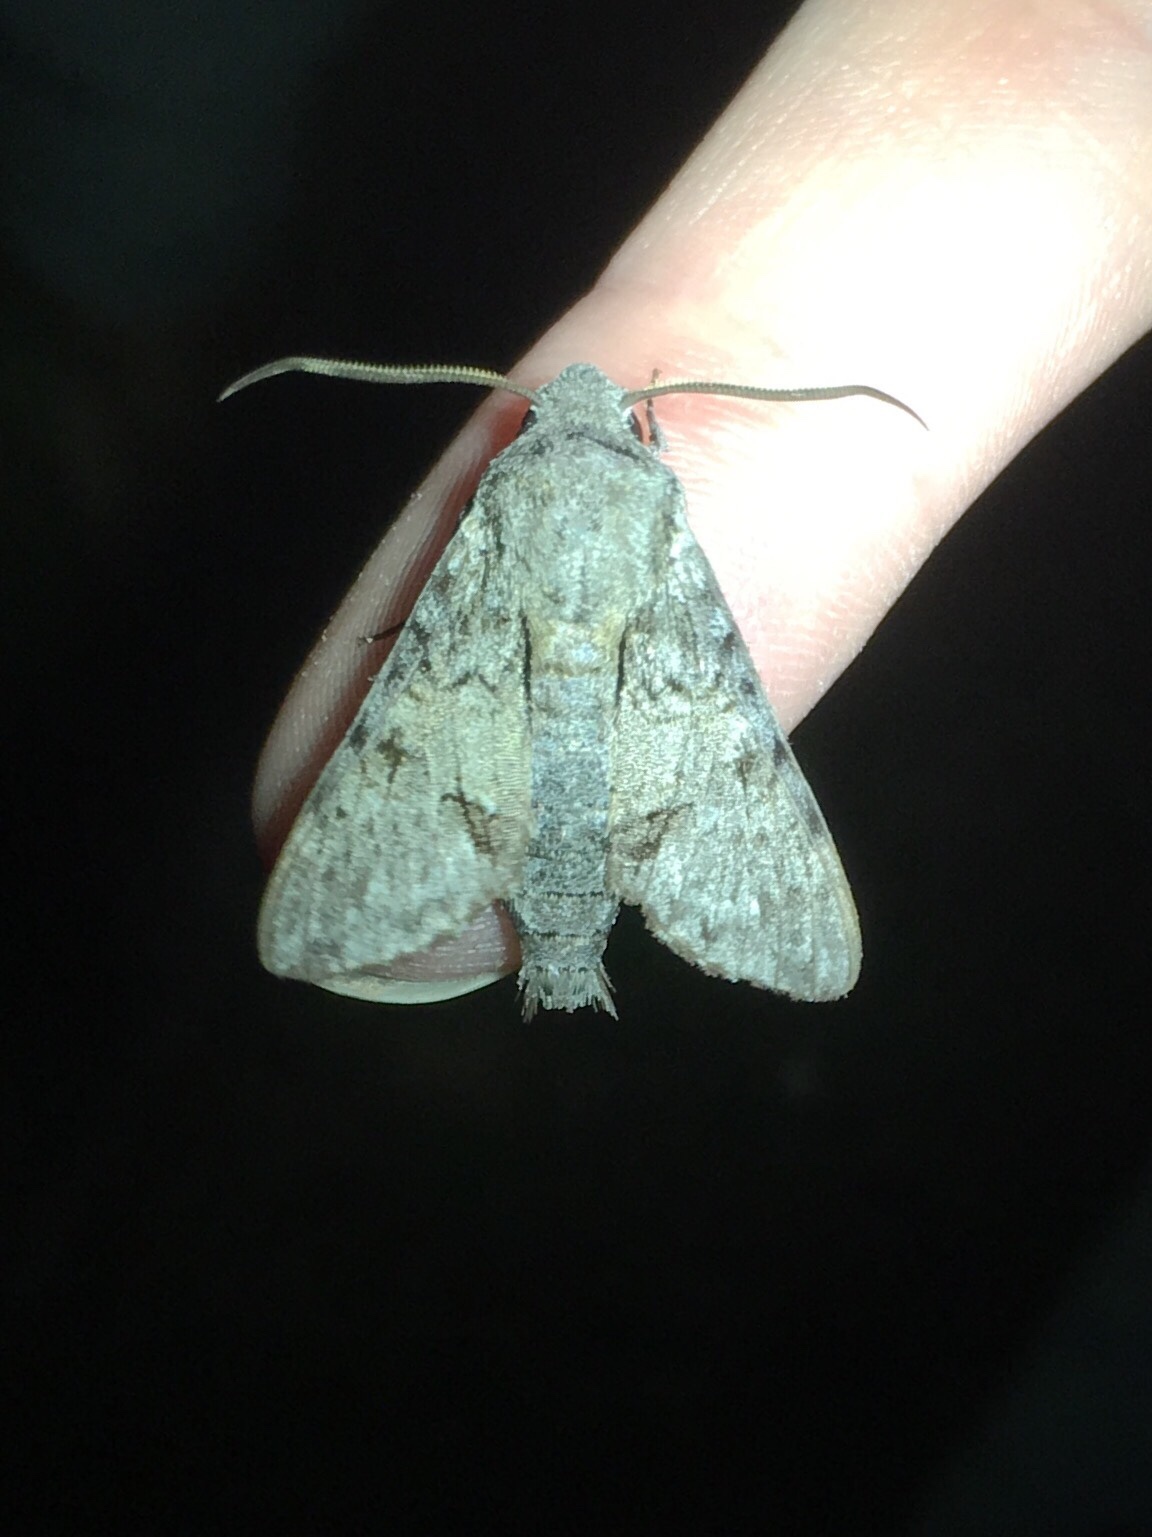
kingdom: Animalia
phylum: Arthropoda
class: Insecta
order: Lepidoptera
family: Sphingidae
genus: Cautethia
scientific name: Cautethia grotei
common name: Grote's sphinx
